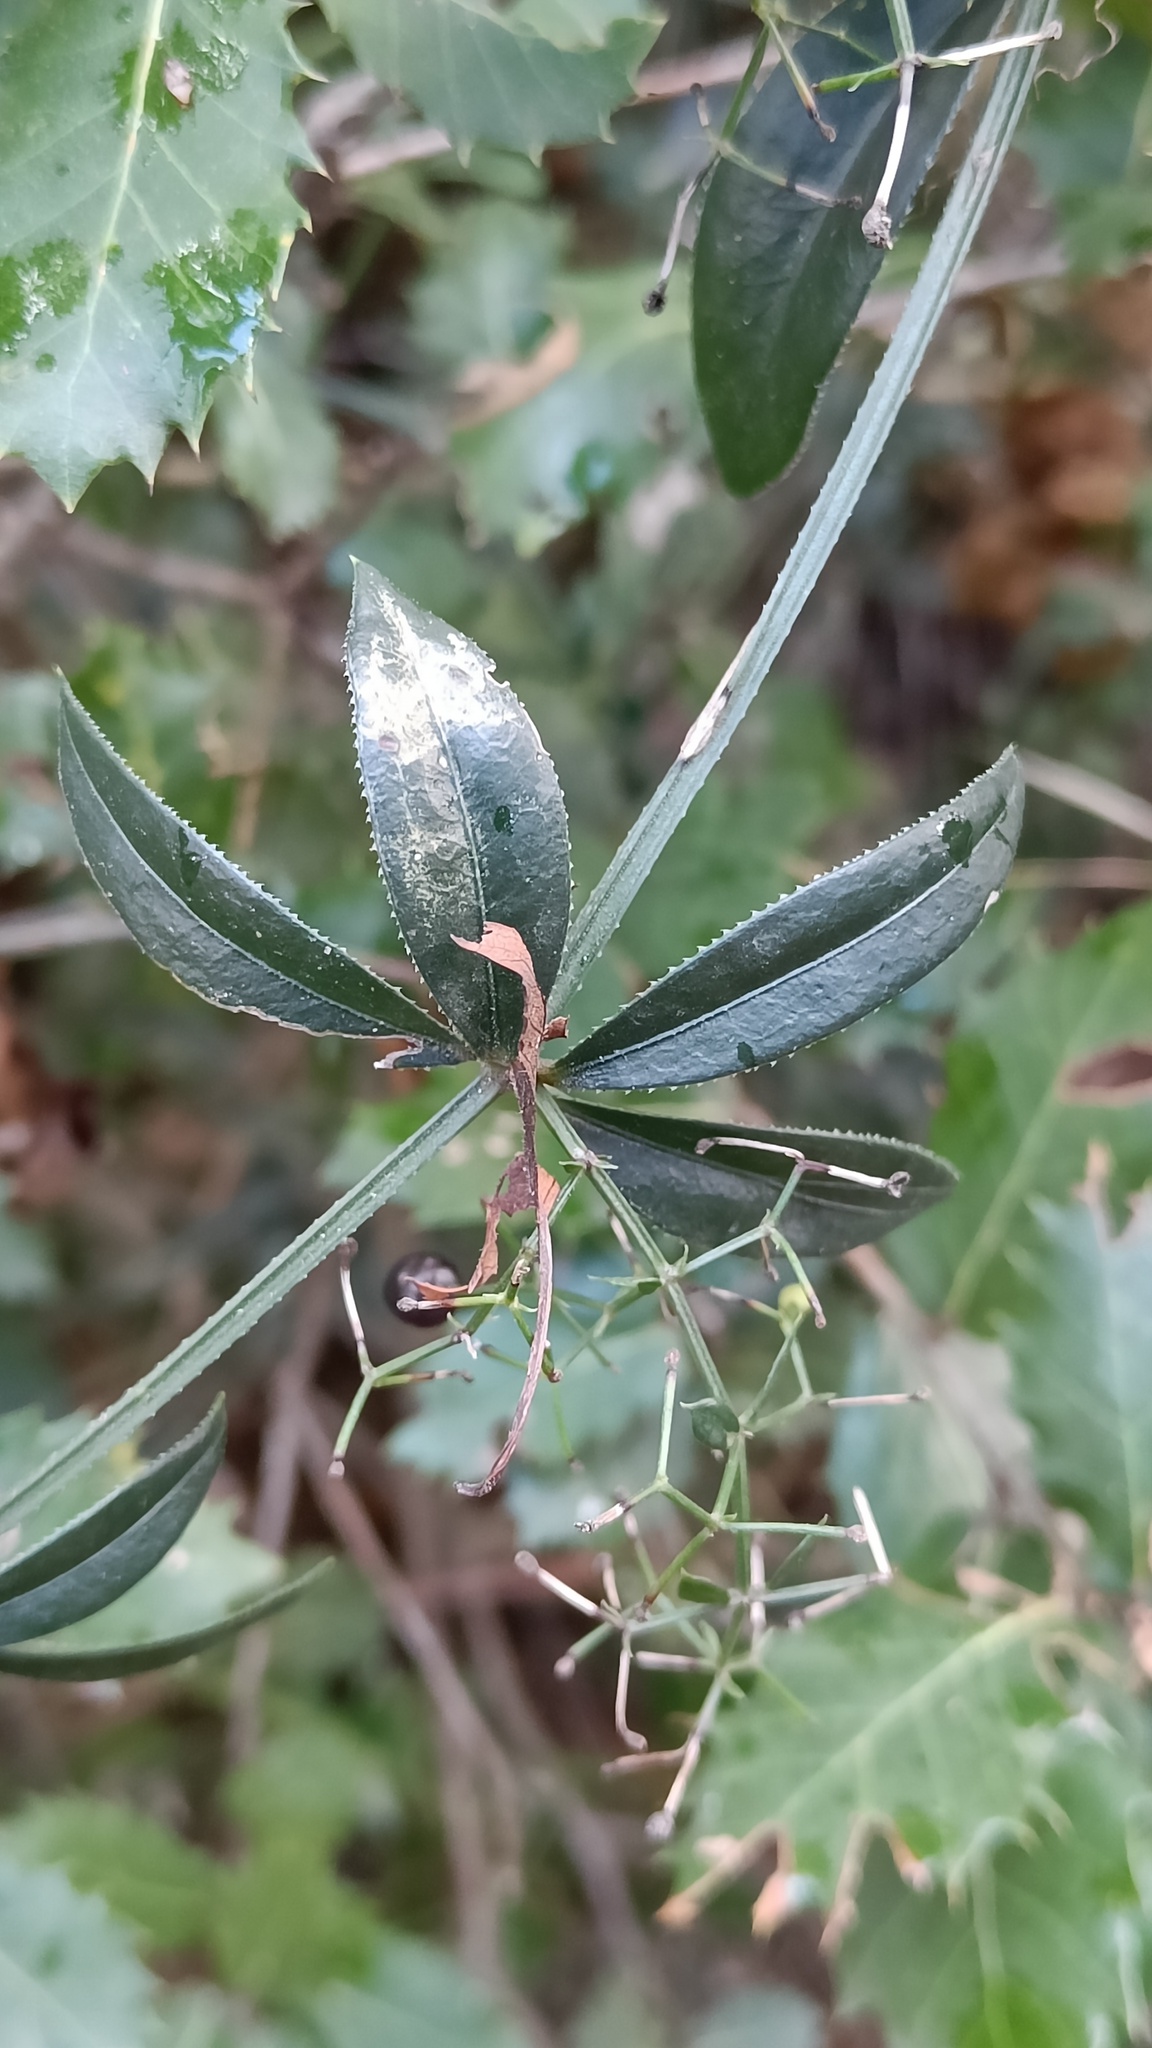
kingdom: Plantae
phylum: Tracheophyta
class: Magnoliopsida
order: Gentianales
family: Rubiaceae
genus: Rubia
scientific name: Rubia peregrina
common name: Wild madder
